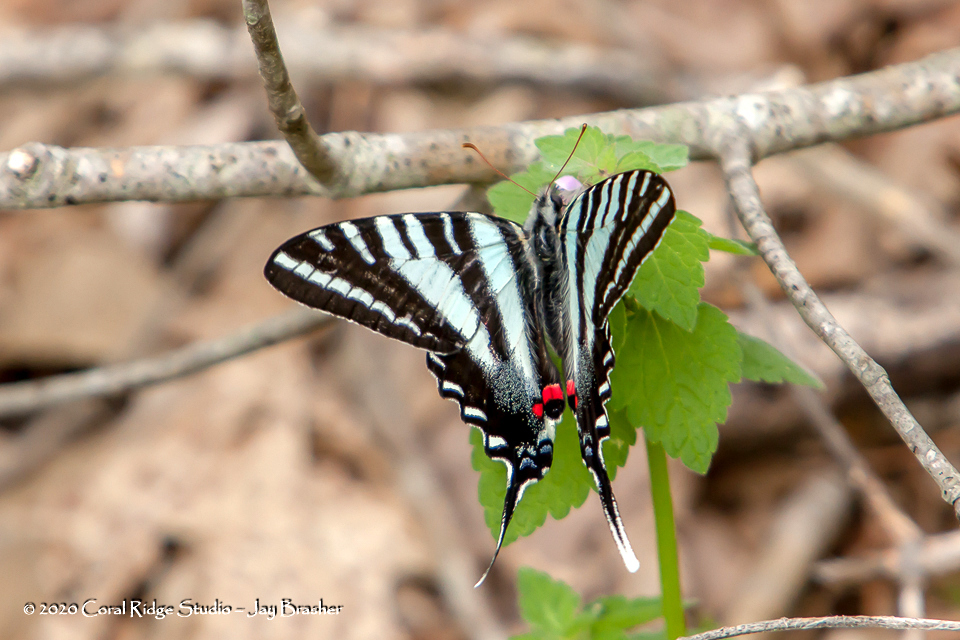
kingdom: Animalia
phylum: Arthropoda
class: Insecta
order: Lepidoptera
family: Papilionidae
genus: Protographium
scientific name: Protographium marcellus
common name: Zebra swallowtail
